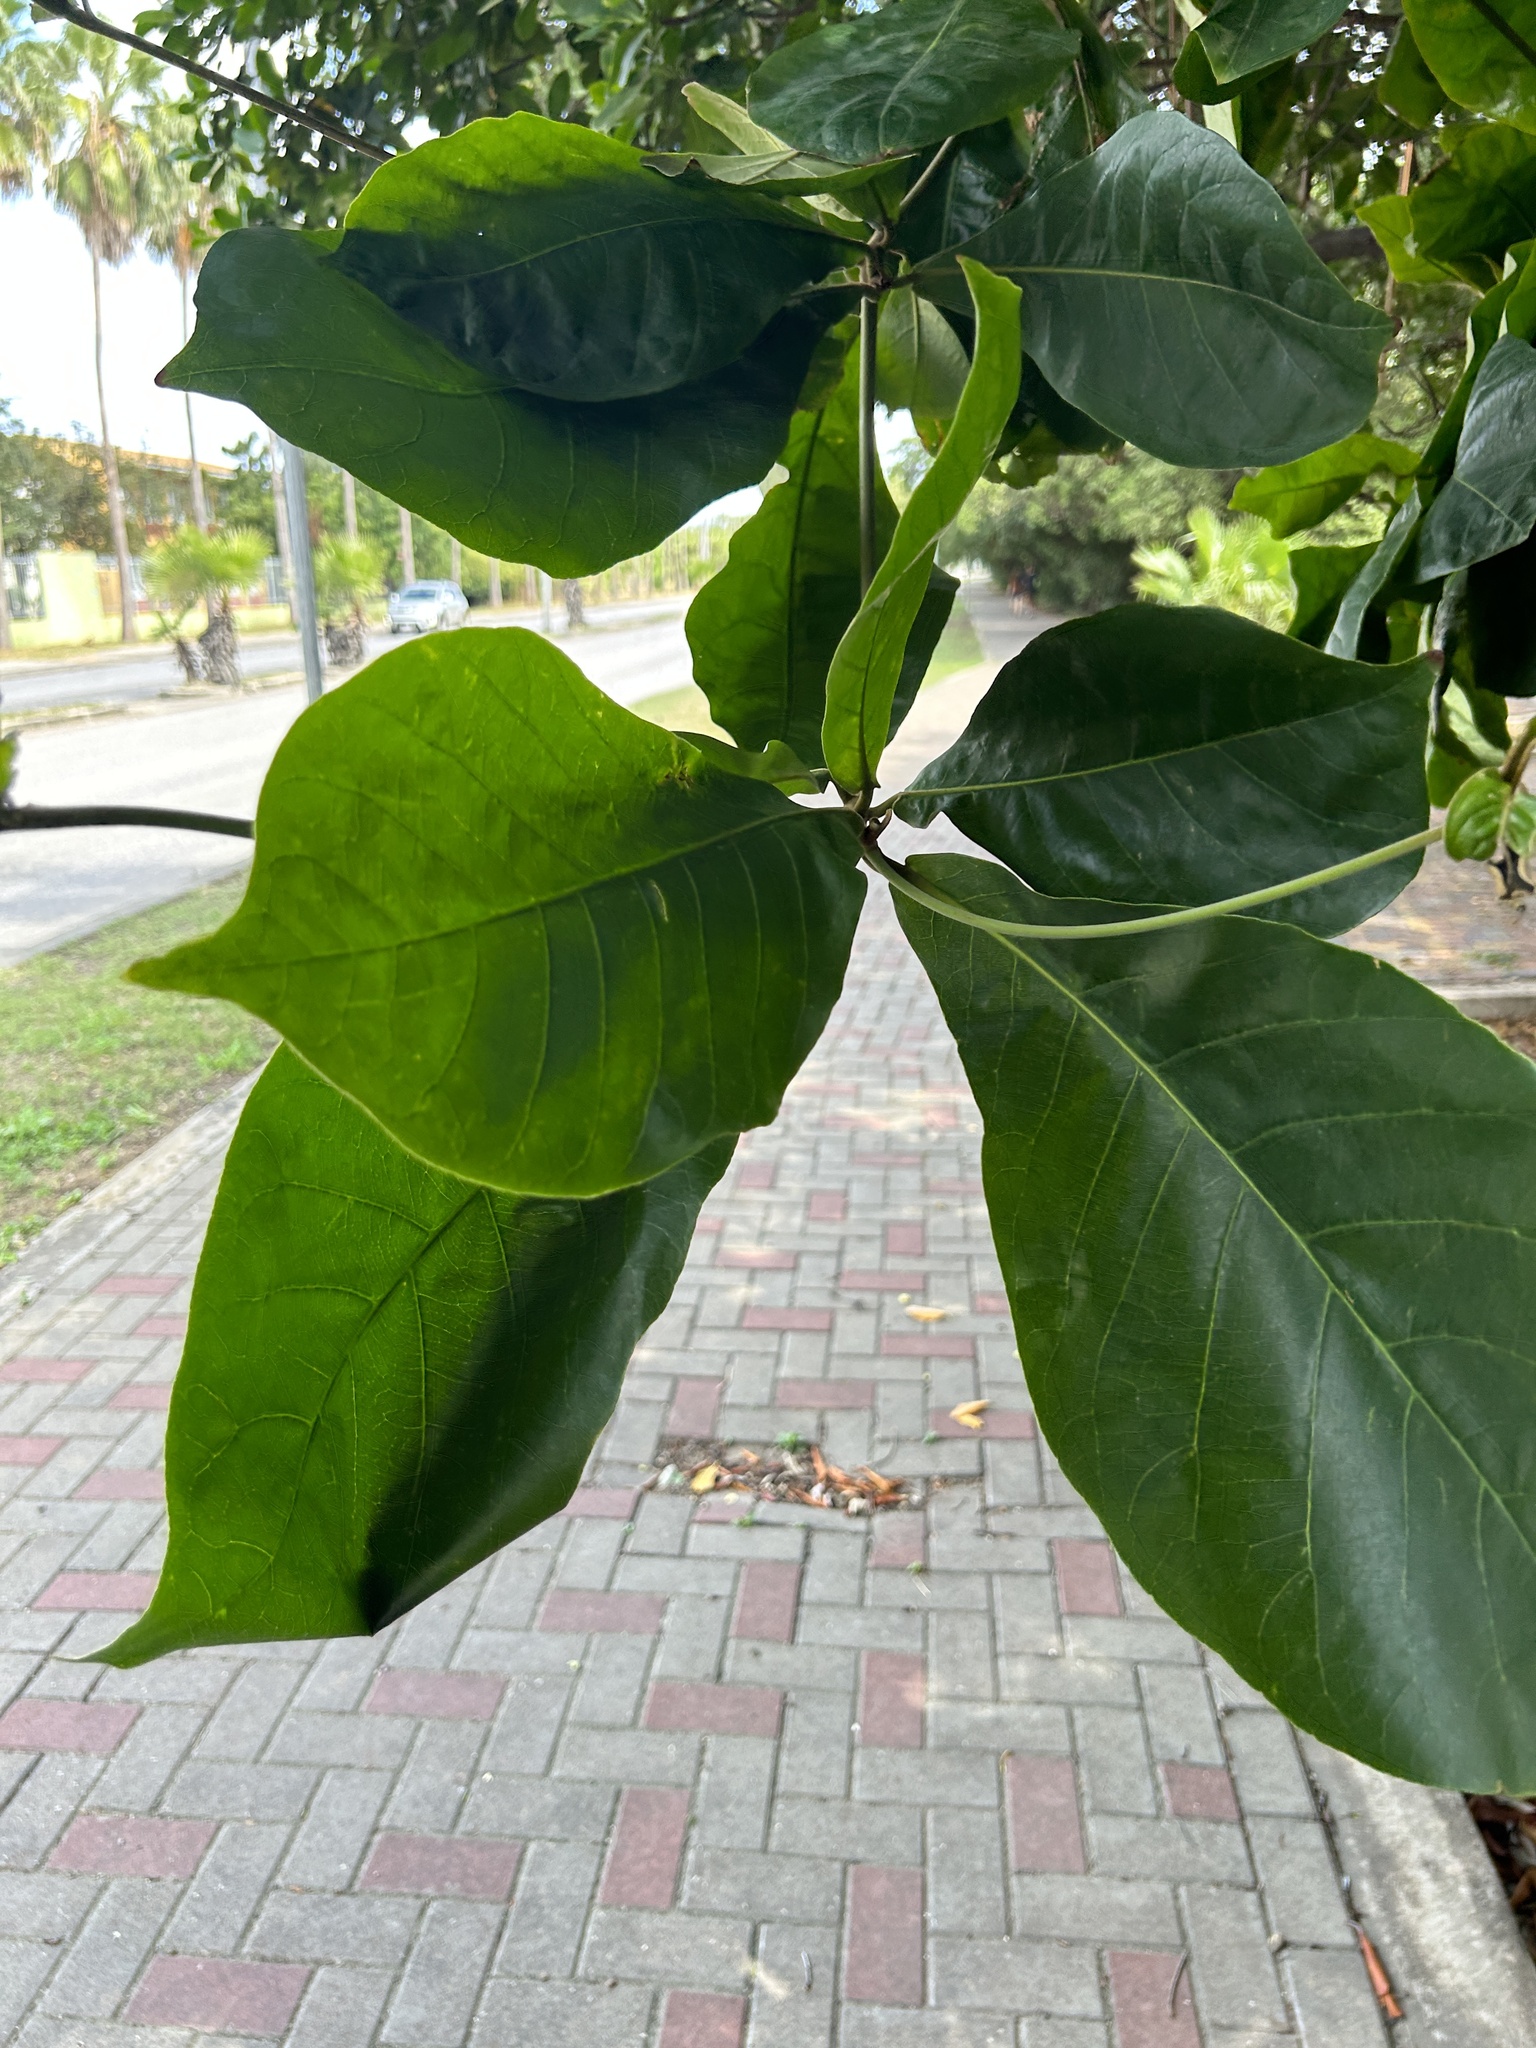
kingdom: Plantae
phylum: Tracheophyta
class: Magnoliopsida
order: Myrtales
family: Combretaceae
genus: Terminalia
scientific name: Terminalia catappa
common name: Tropical almond
